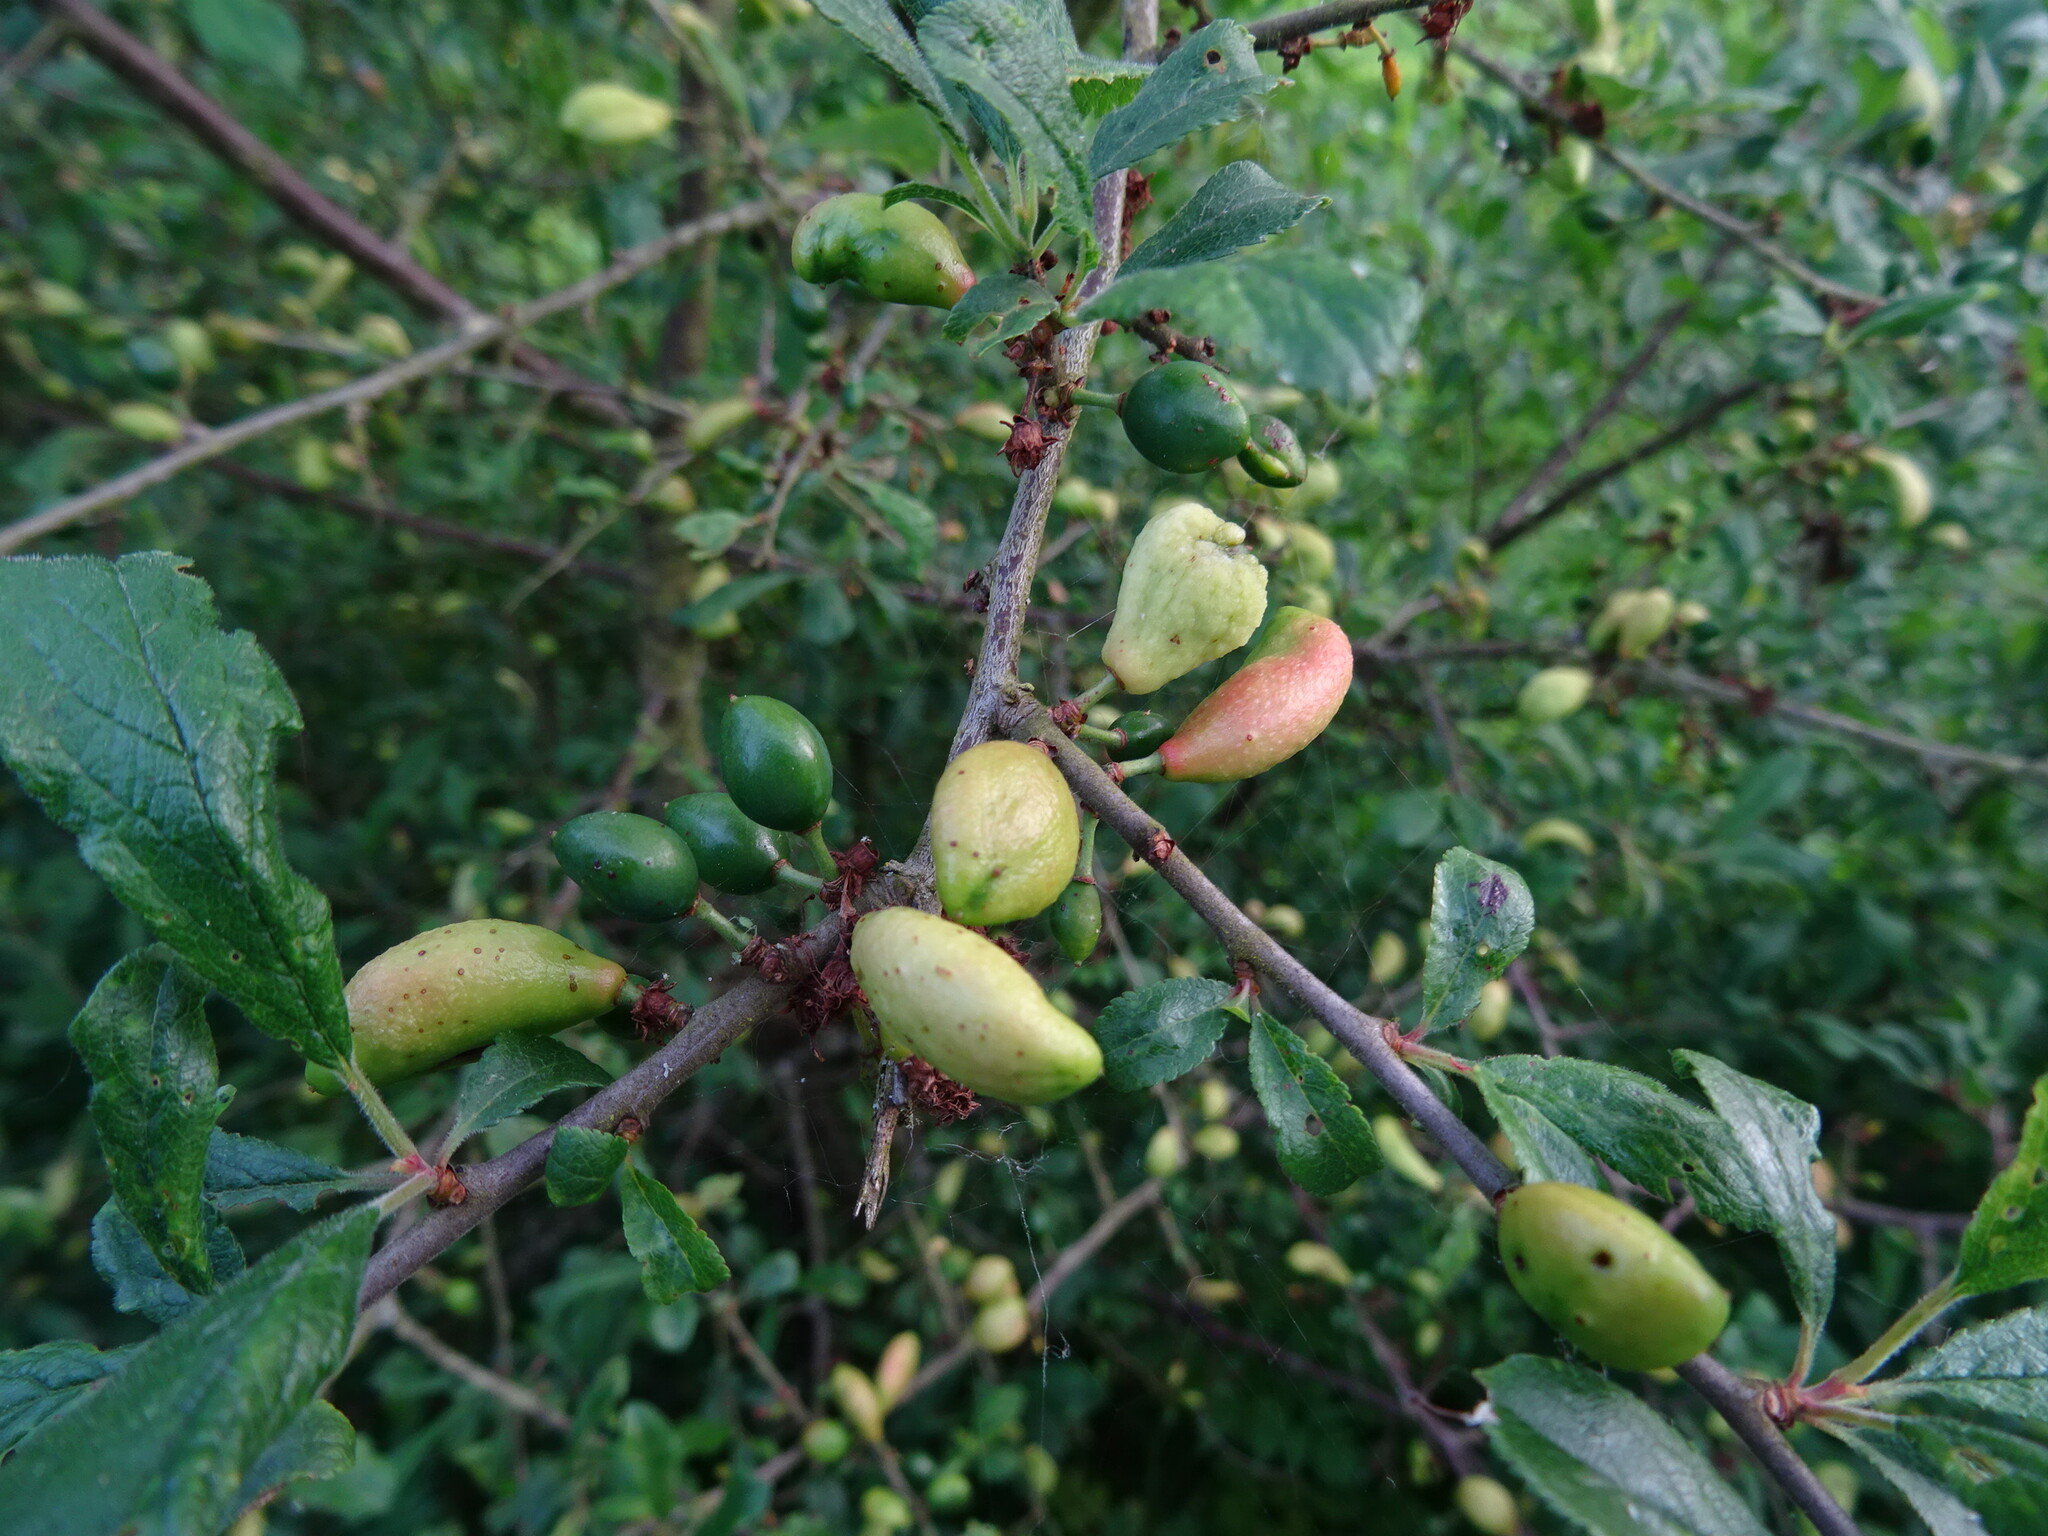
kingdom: Fungi
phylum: Ascomycota
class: Taphrinomycetes
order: Taphrinales
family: Taphrinaceae
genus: Taphrina
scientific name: Taphrina pruni
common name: Pocket plum
